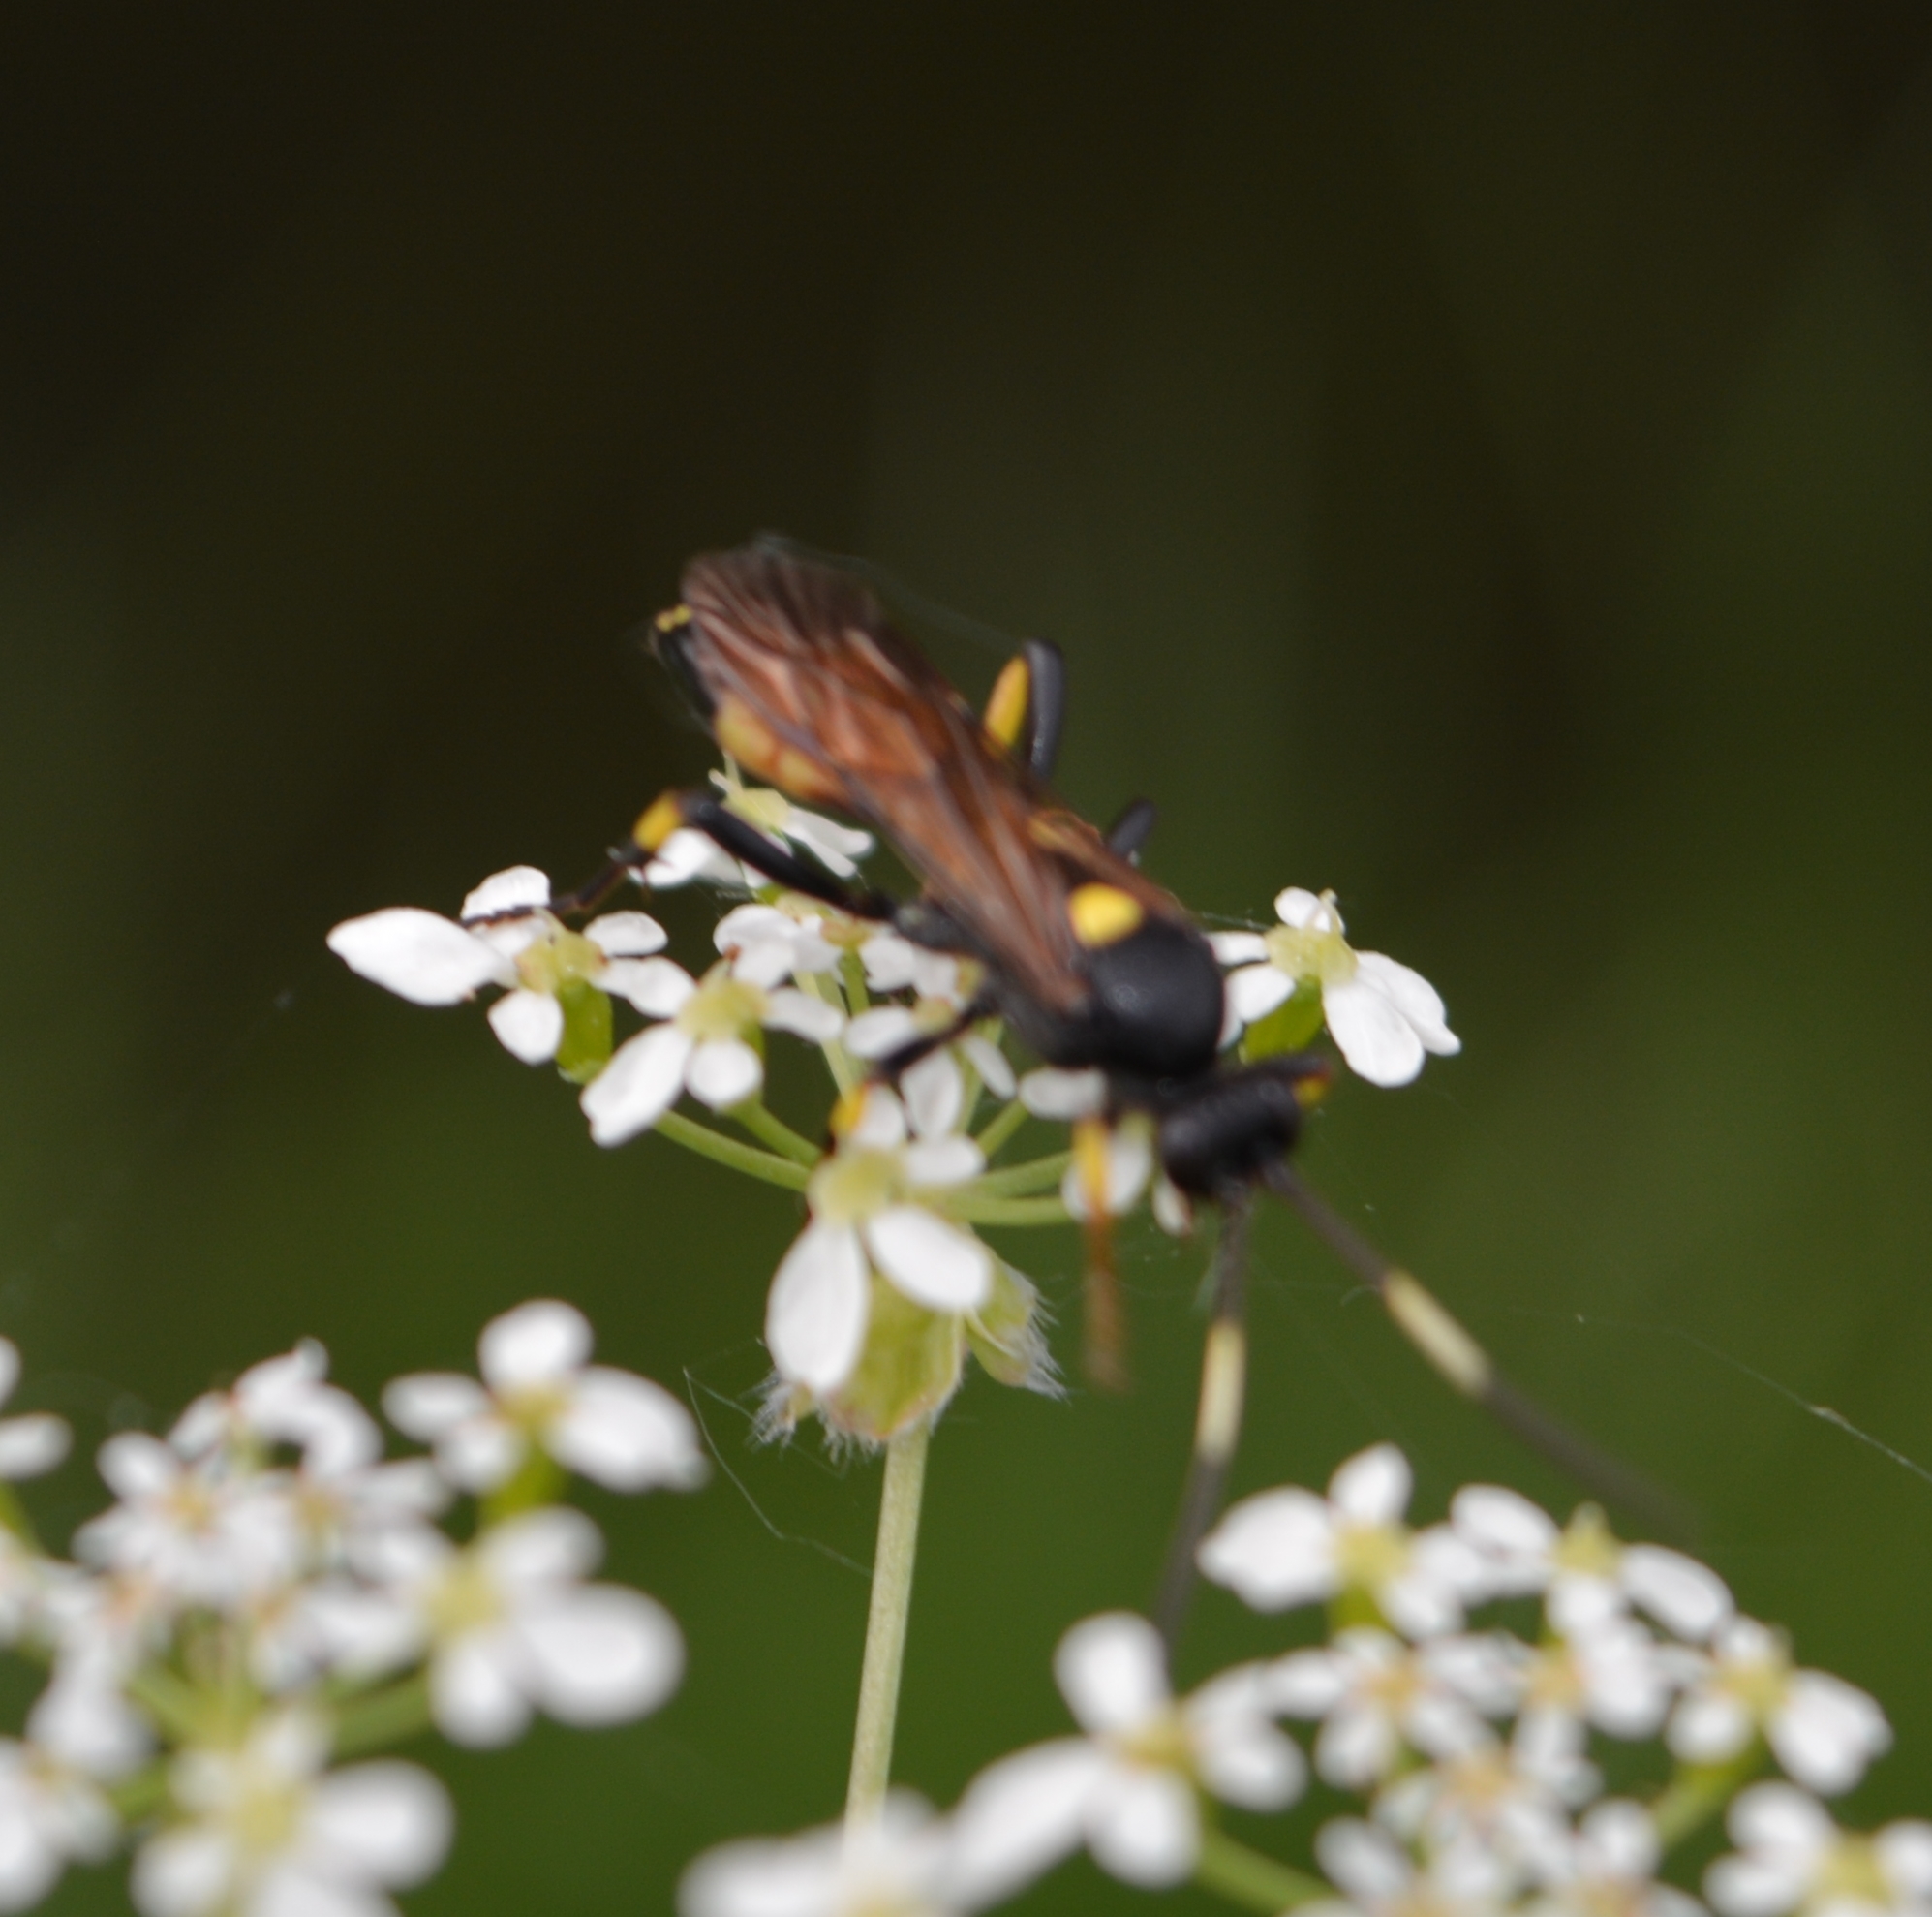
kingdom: Animalia
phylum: Arthropoda
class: Insecta
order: Hymenoptera
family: Ichneumonidae
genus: Ichneumon
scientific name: Ichneumon stramentor
